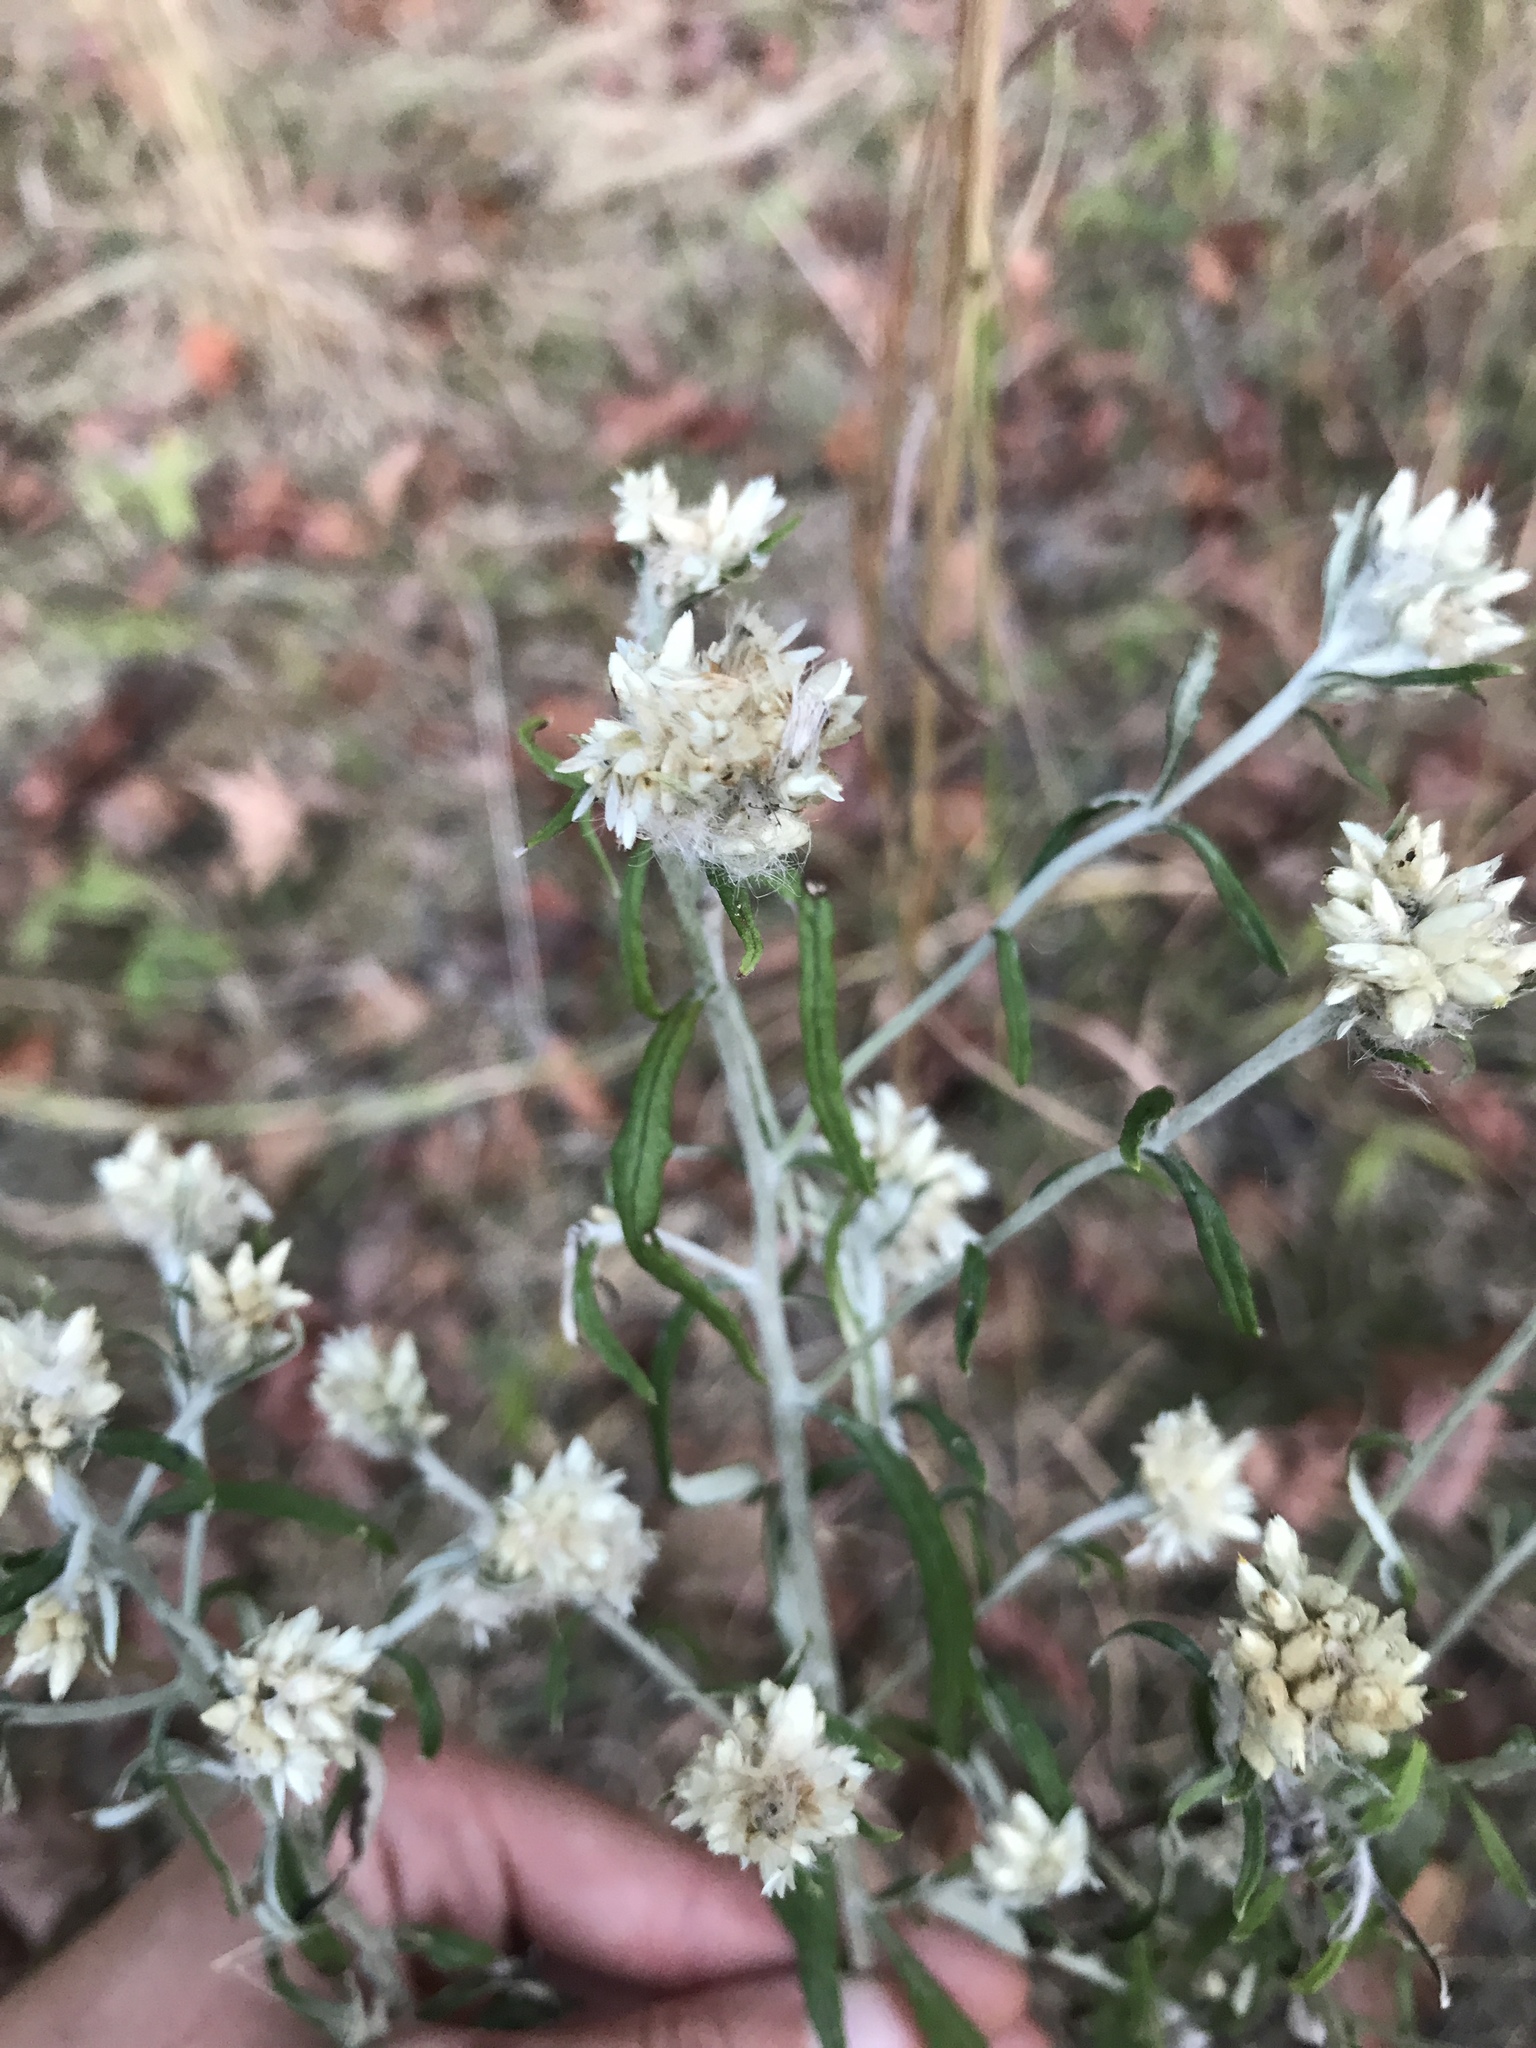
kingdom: Plantae
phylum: Tracheophyta
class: Magnoliopsida
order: Asterales
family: Asteraceae
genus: Pseudognaphalium
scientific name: Pseudognaphalium obtusifolium
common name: Eastern rabbit-tobacco
